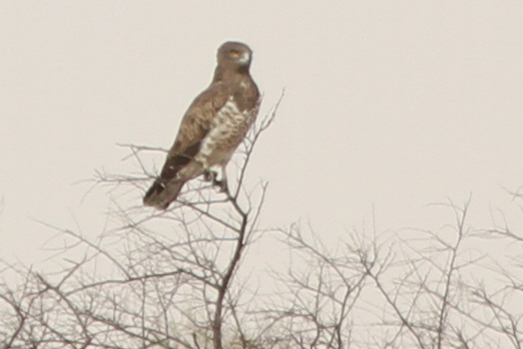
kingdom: Animalia
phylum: Chordata
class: Aves
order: Accipitriformes
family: Accipitridae
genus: Circaetus
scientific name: Circaetus gallicus
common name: Short-toed snake eagle
